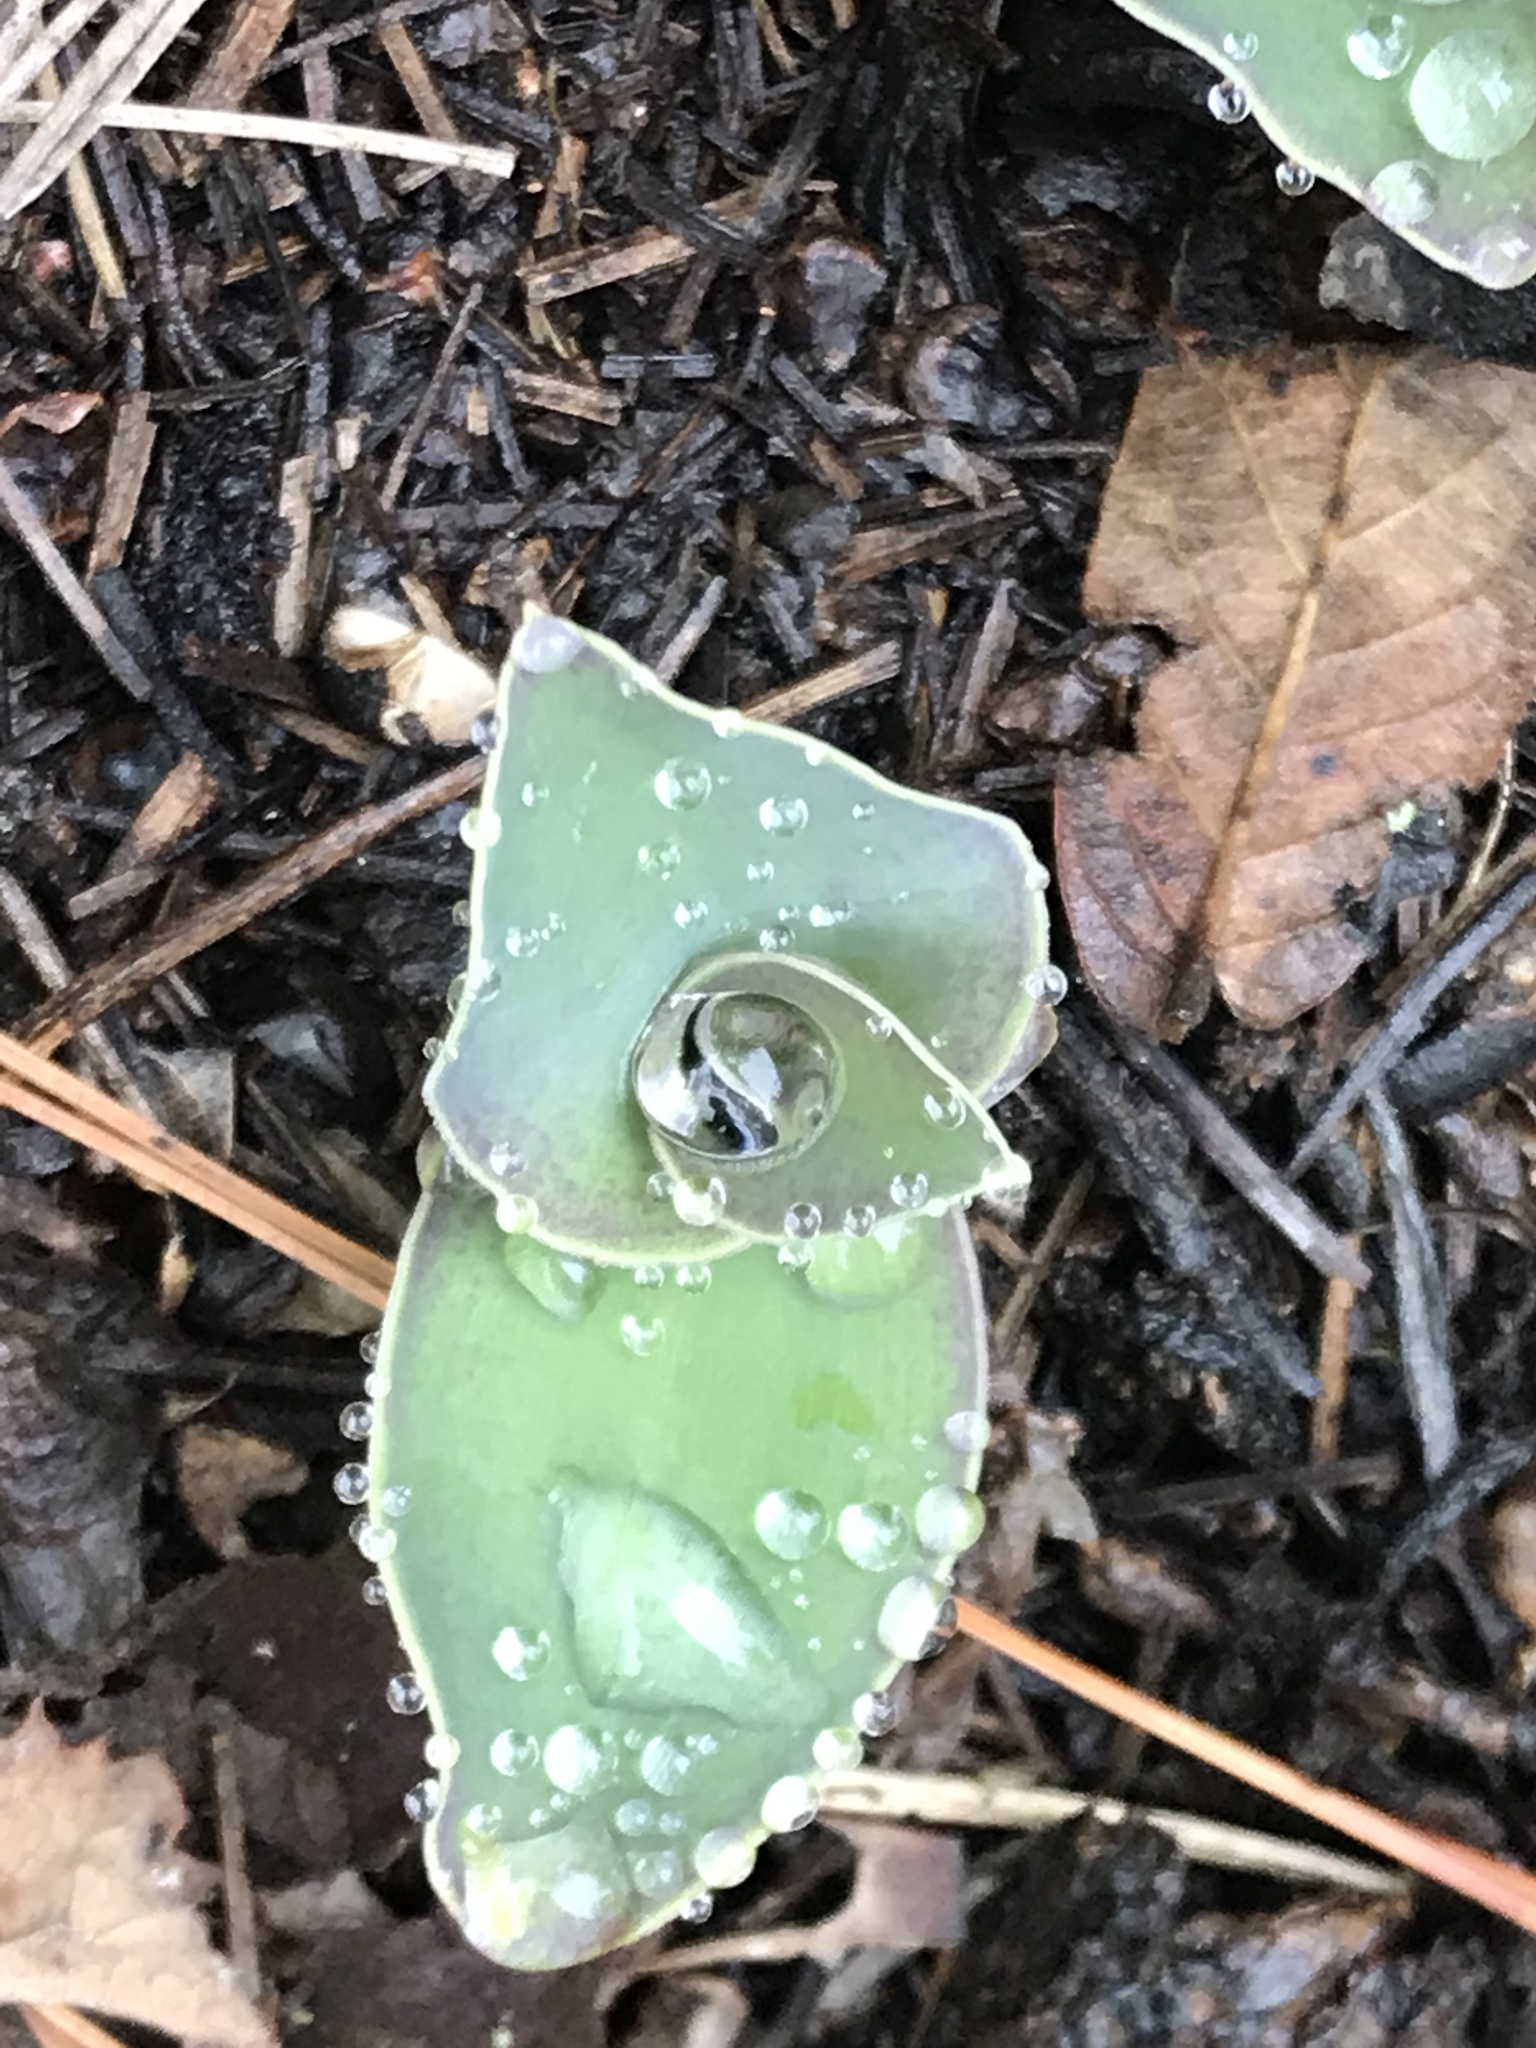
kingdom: Plantae
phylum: Tracheophyta
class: Liliopsida
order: Commelinales
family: Commelinaceae
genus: Tradescantia
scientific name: Tradescantia brevifolia
